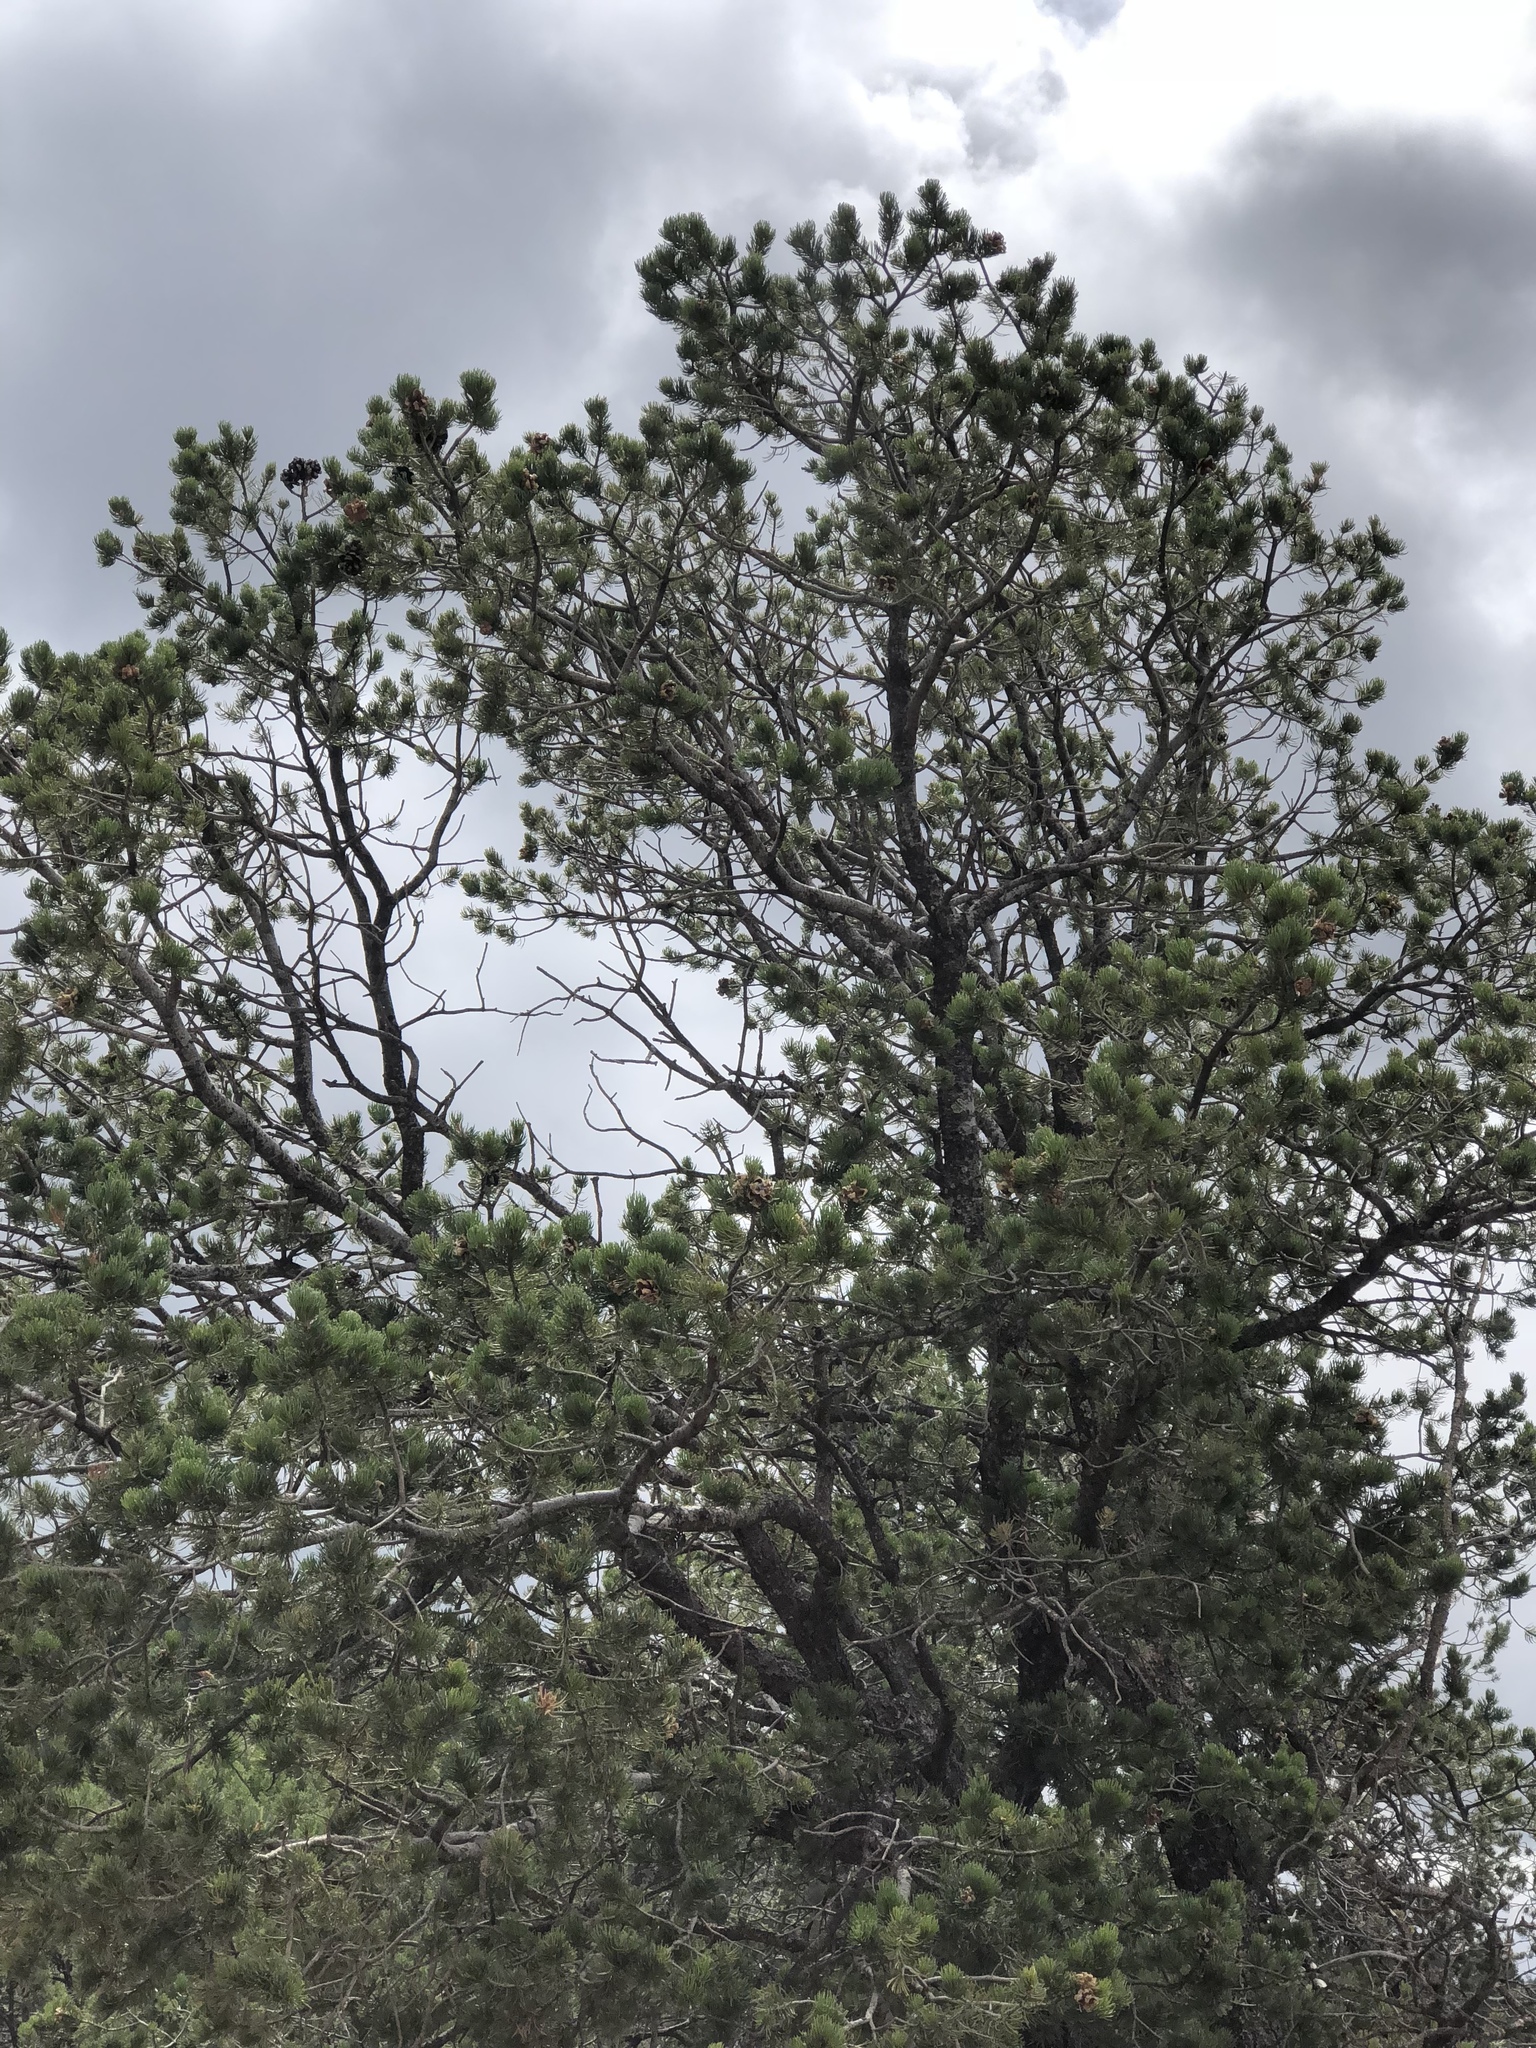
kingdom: Plantae
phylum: Tracheophyta
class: Pinopsida
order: Pinales
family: Pinaceae
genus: Pinus
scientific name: Pinus edulis
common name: Colorado pinyon
